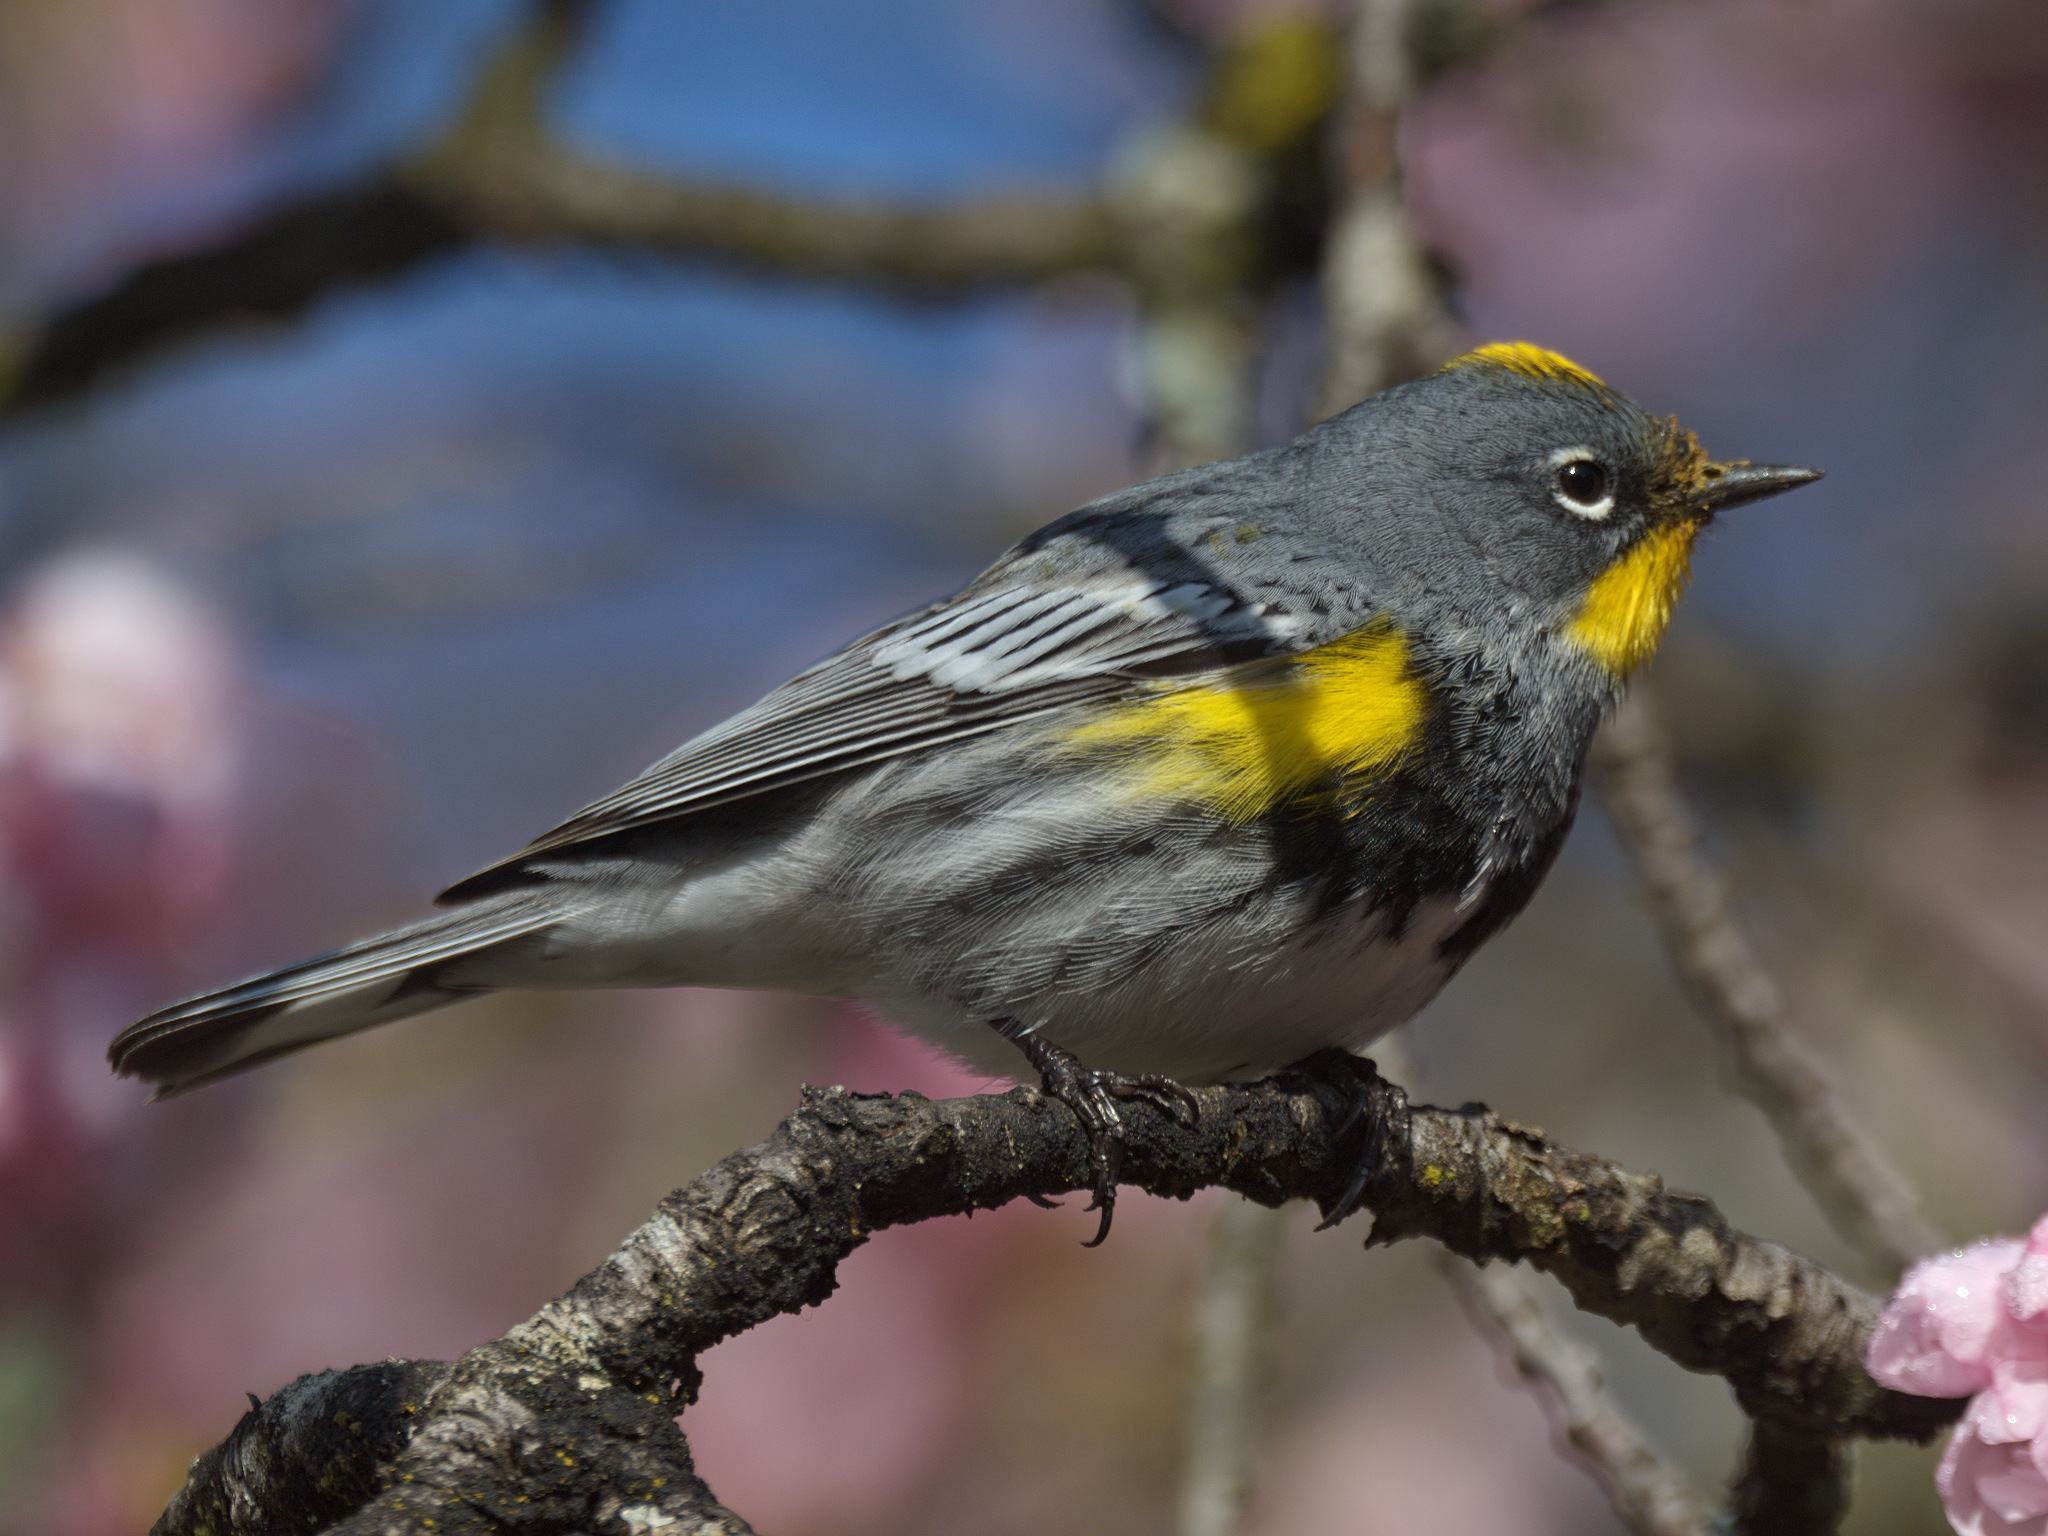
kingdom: Animalia
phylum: Chordata
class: Aves
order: Passeriformes
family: Parulidae
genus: Setophaga
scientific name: Setophaga auduboni
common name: Audubon's warbler
